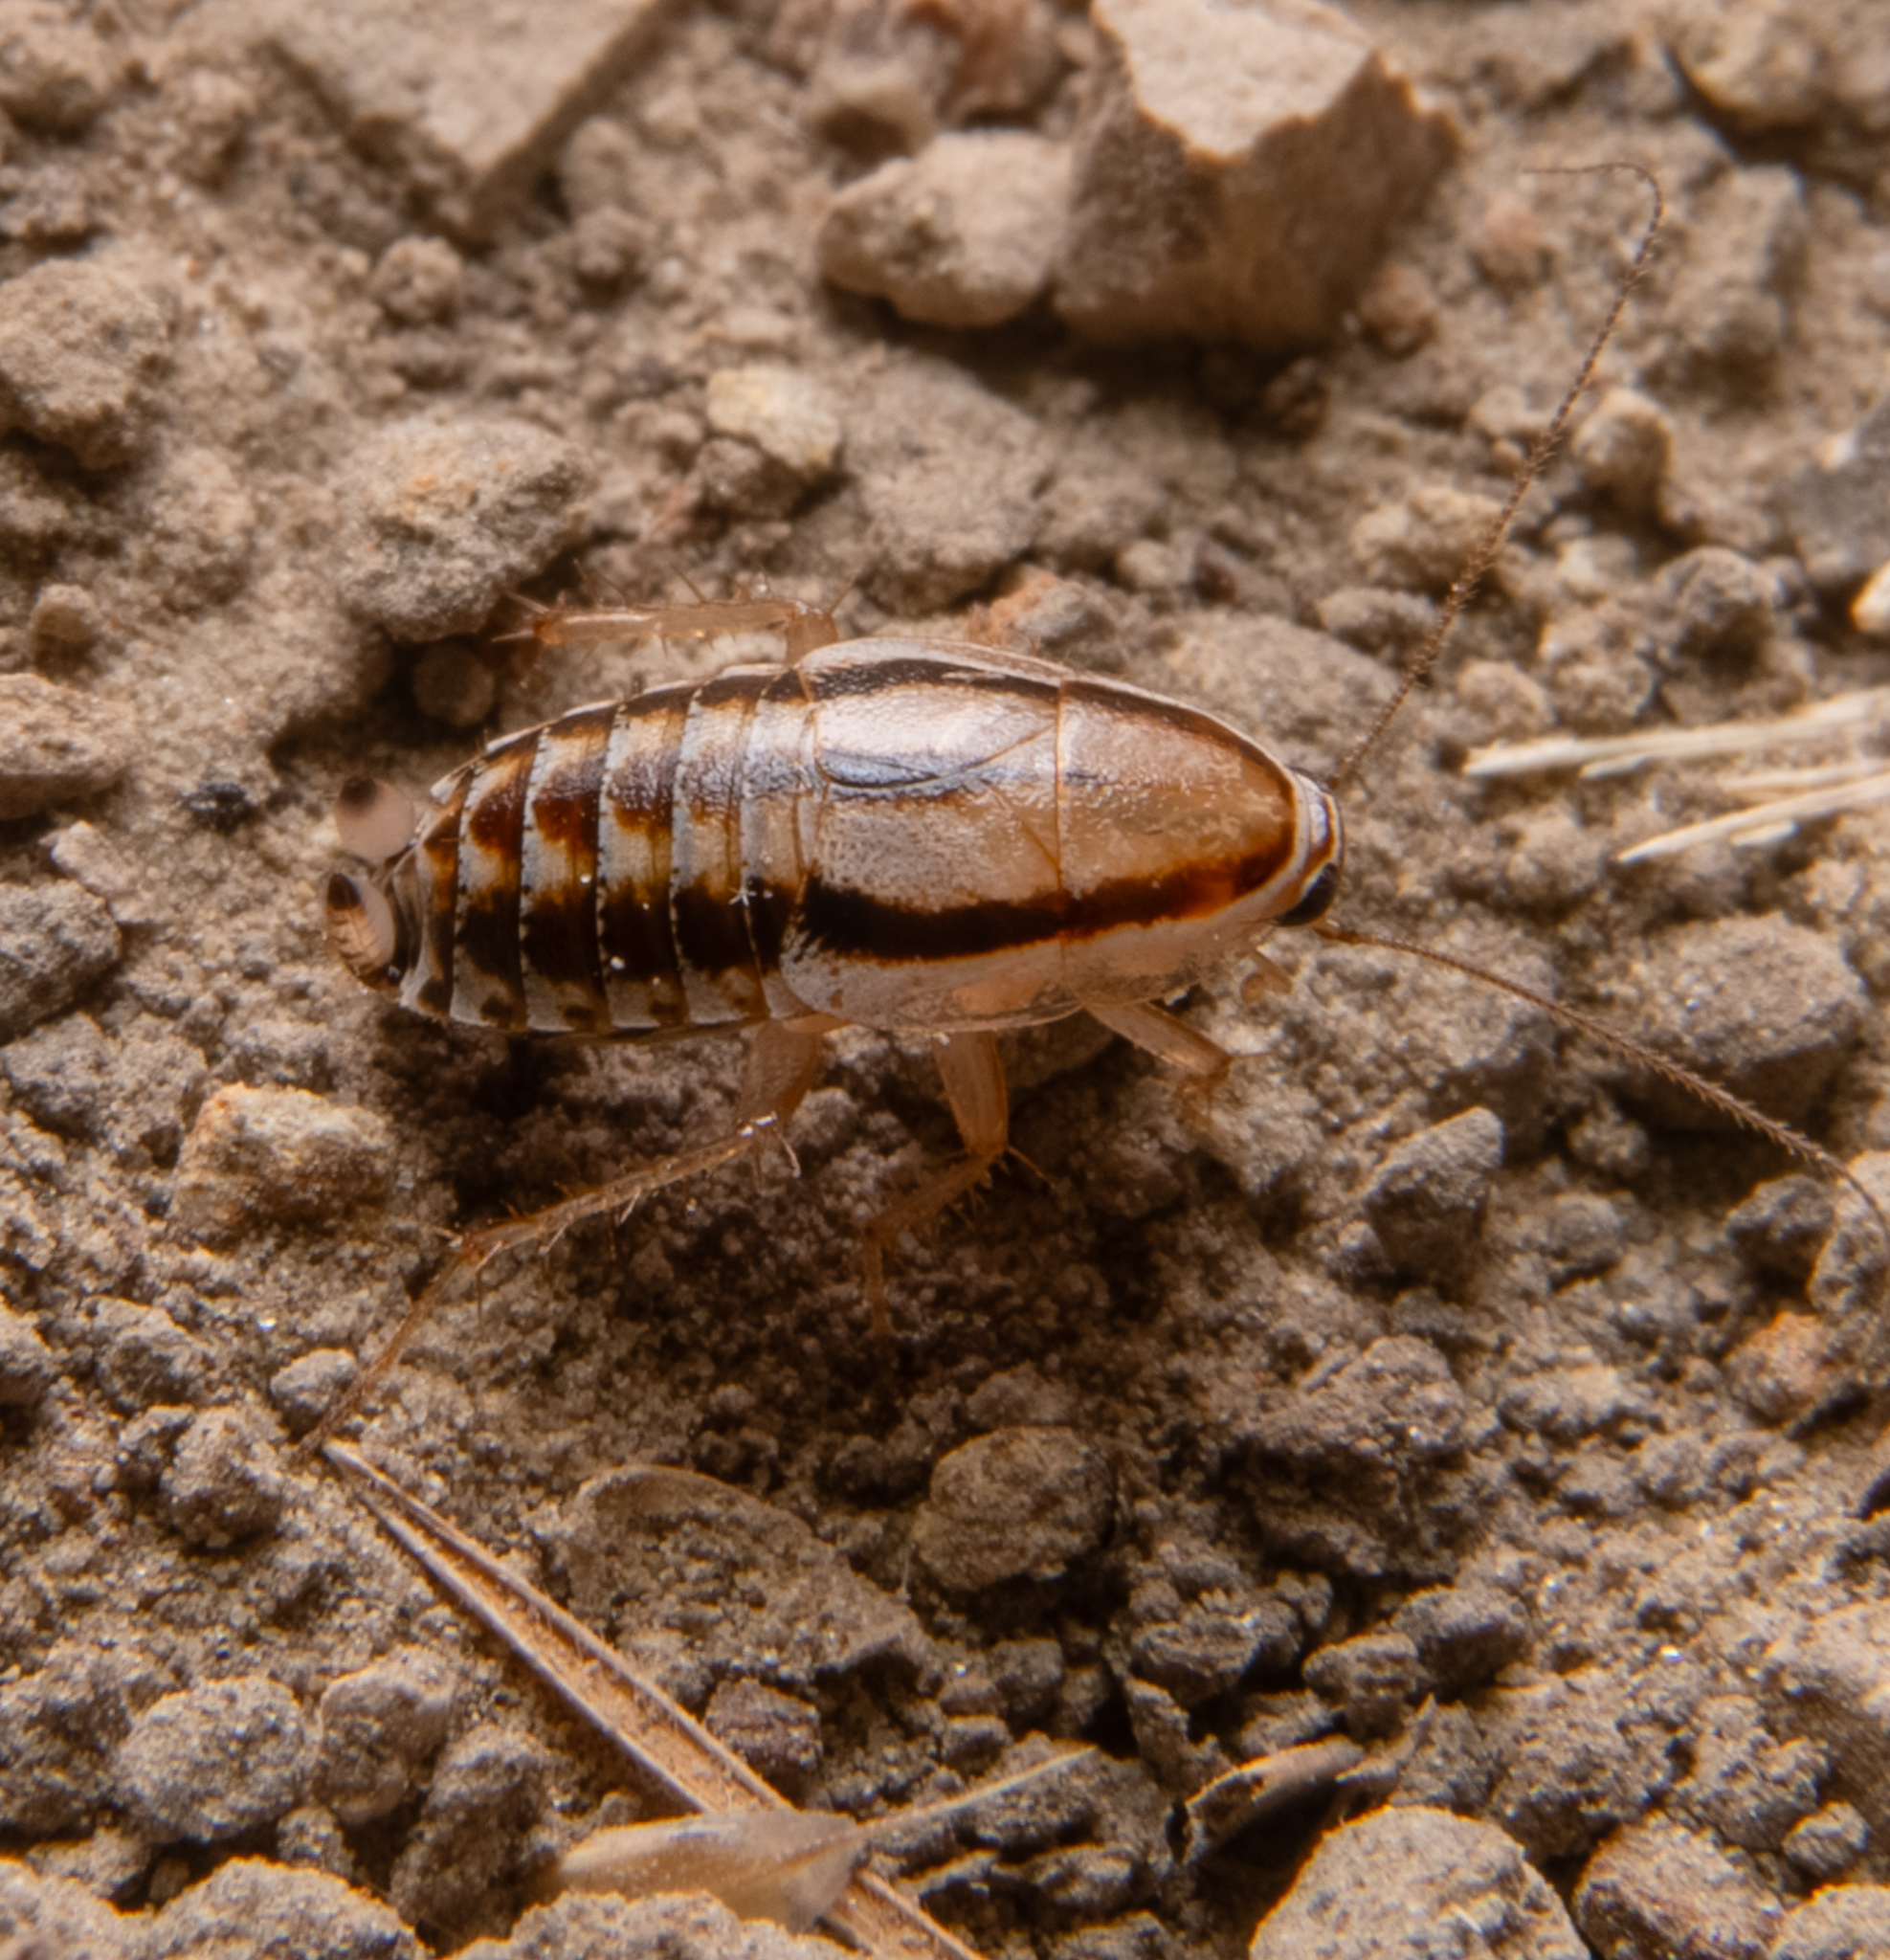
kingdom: Animalia
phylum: Arthropoda
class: Insecta
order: Blattodea
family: Ectobiidae
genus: Luridiblatta
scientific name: Luridiblatta trivittata
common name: Three-lined cockroach
